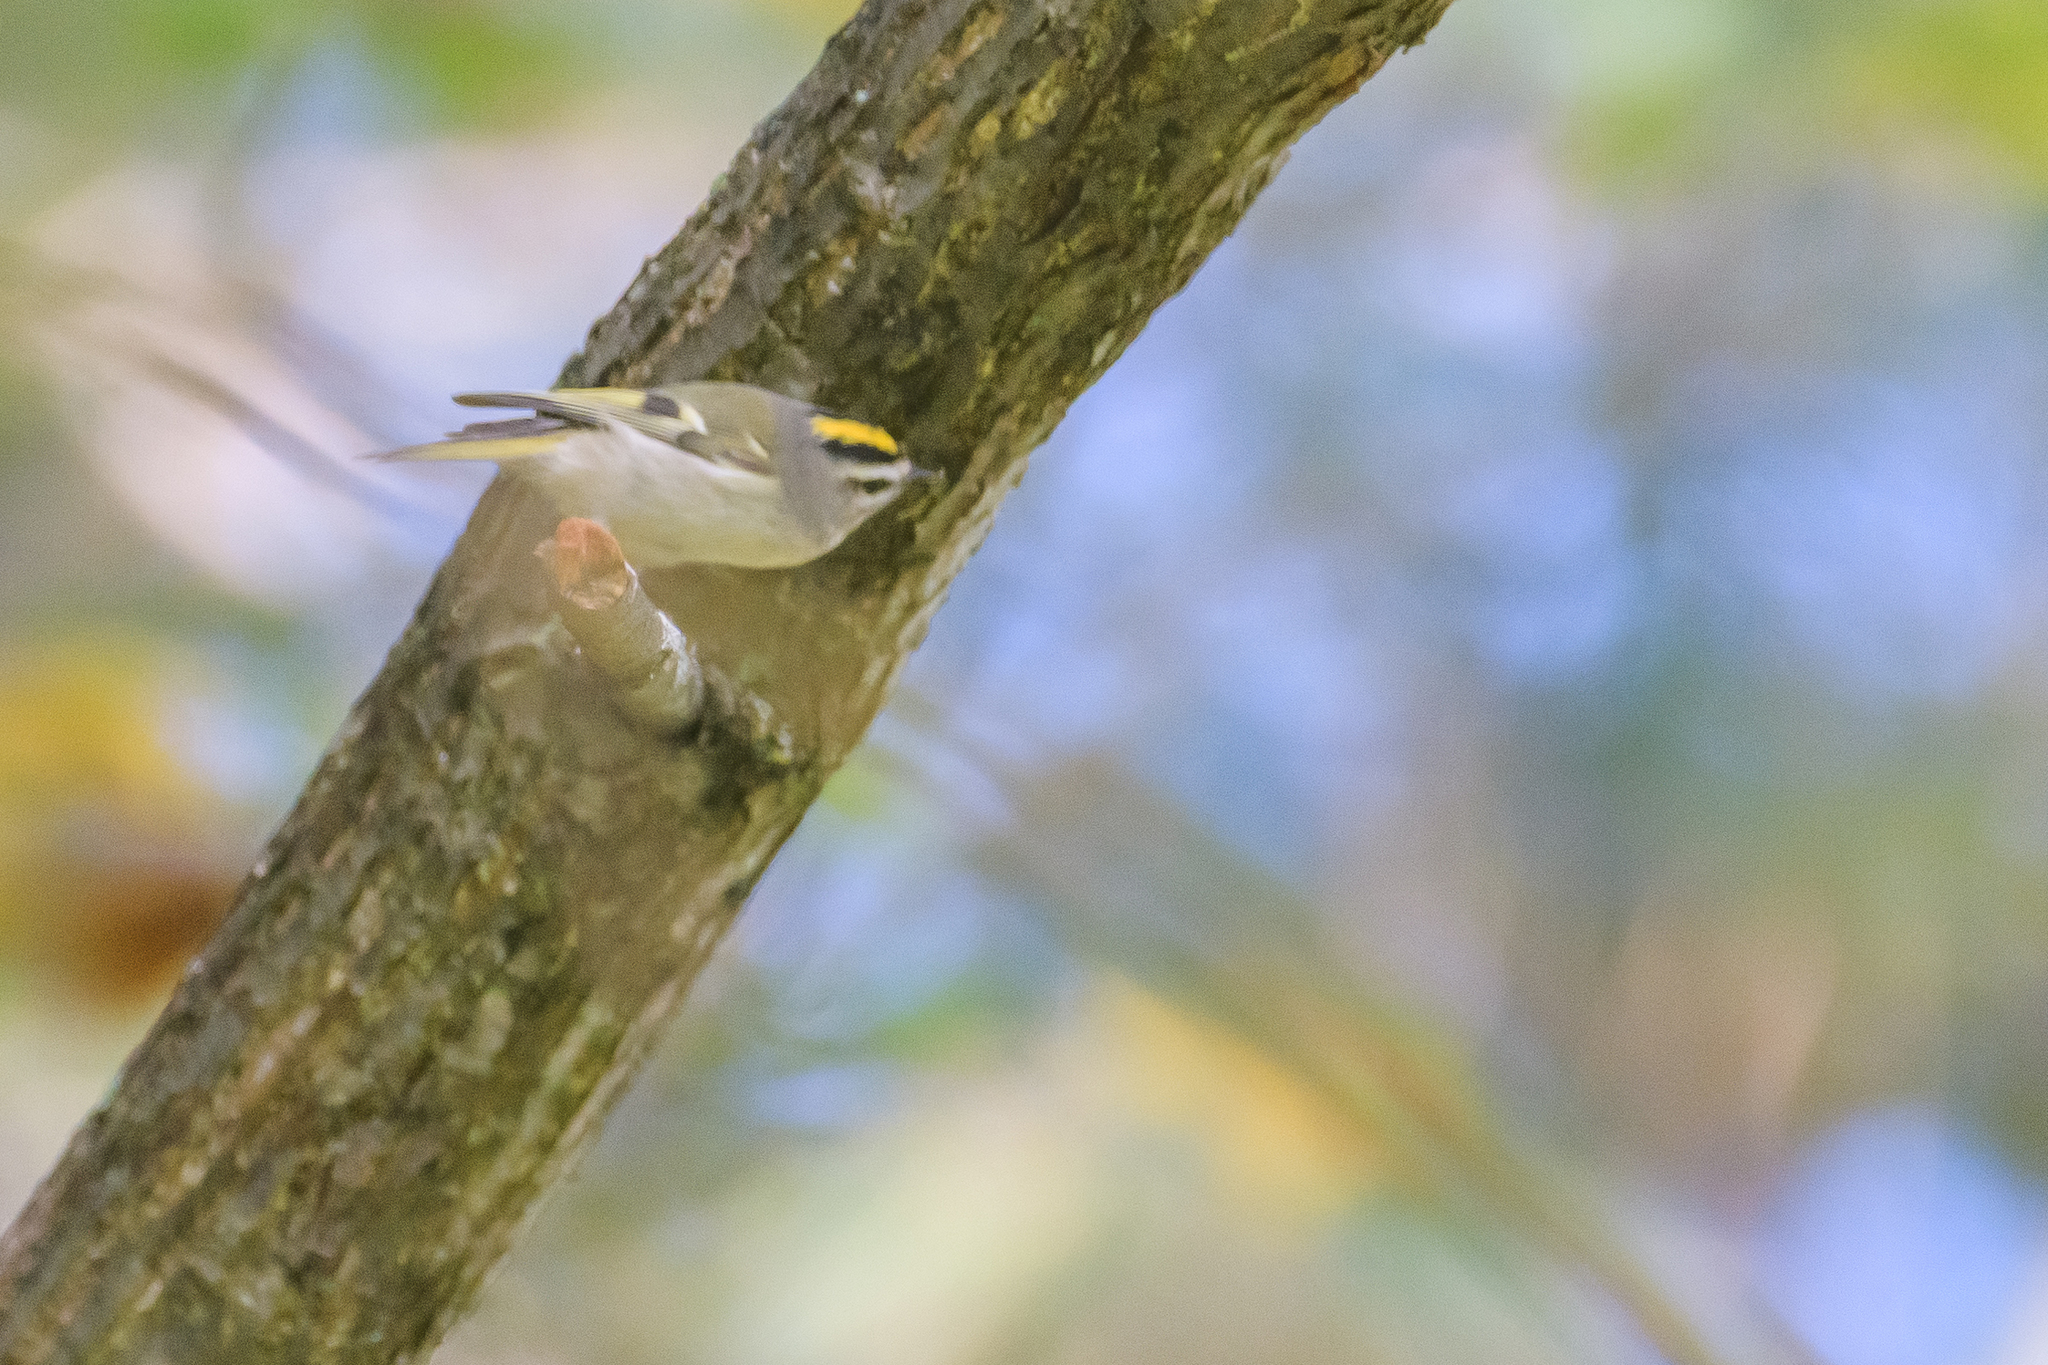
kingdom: Animalia
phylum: Chordata
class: Aves
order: Passeriformes
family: Regulidae
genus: Regulus
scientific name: Regulus satrapa
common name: Golden-crowned kinglet
